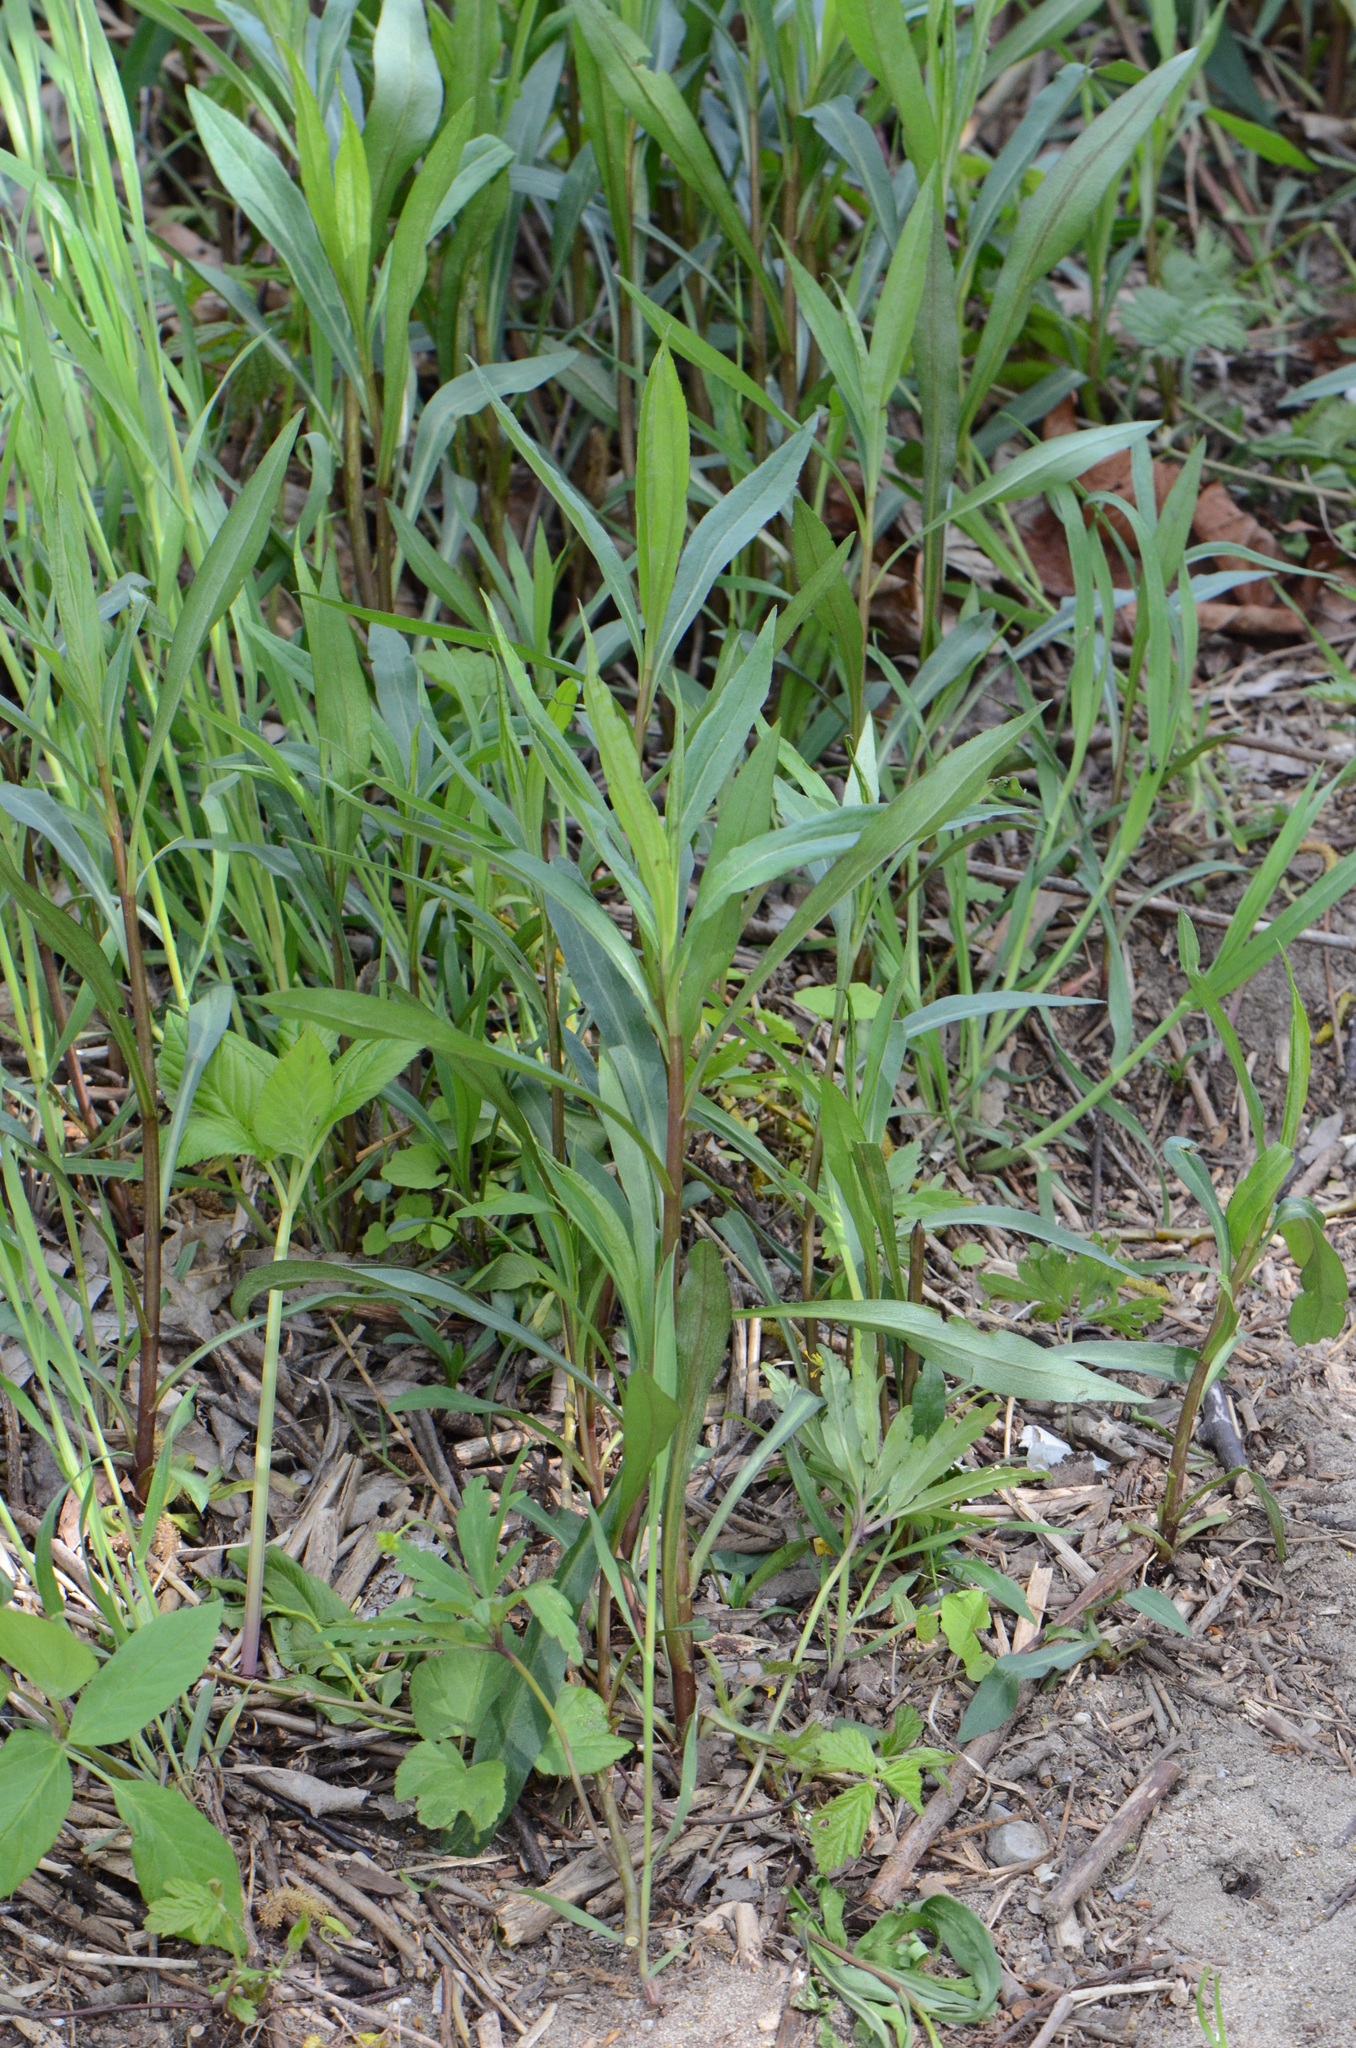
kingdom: Plantae
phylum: Tracheophyta
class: Magnoliopsida
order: Asterales
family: Asteraceae
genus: Solidago
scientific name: Solidago canadensis
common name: Canada goldenrod
